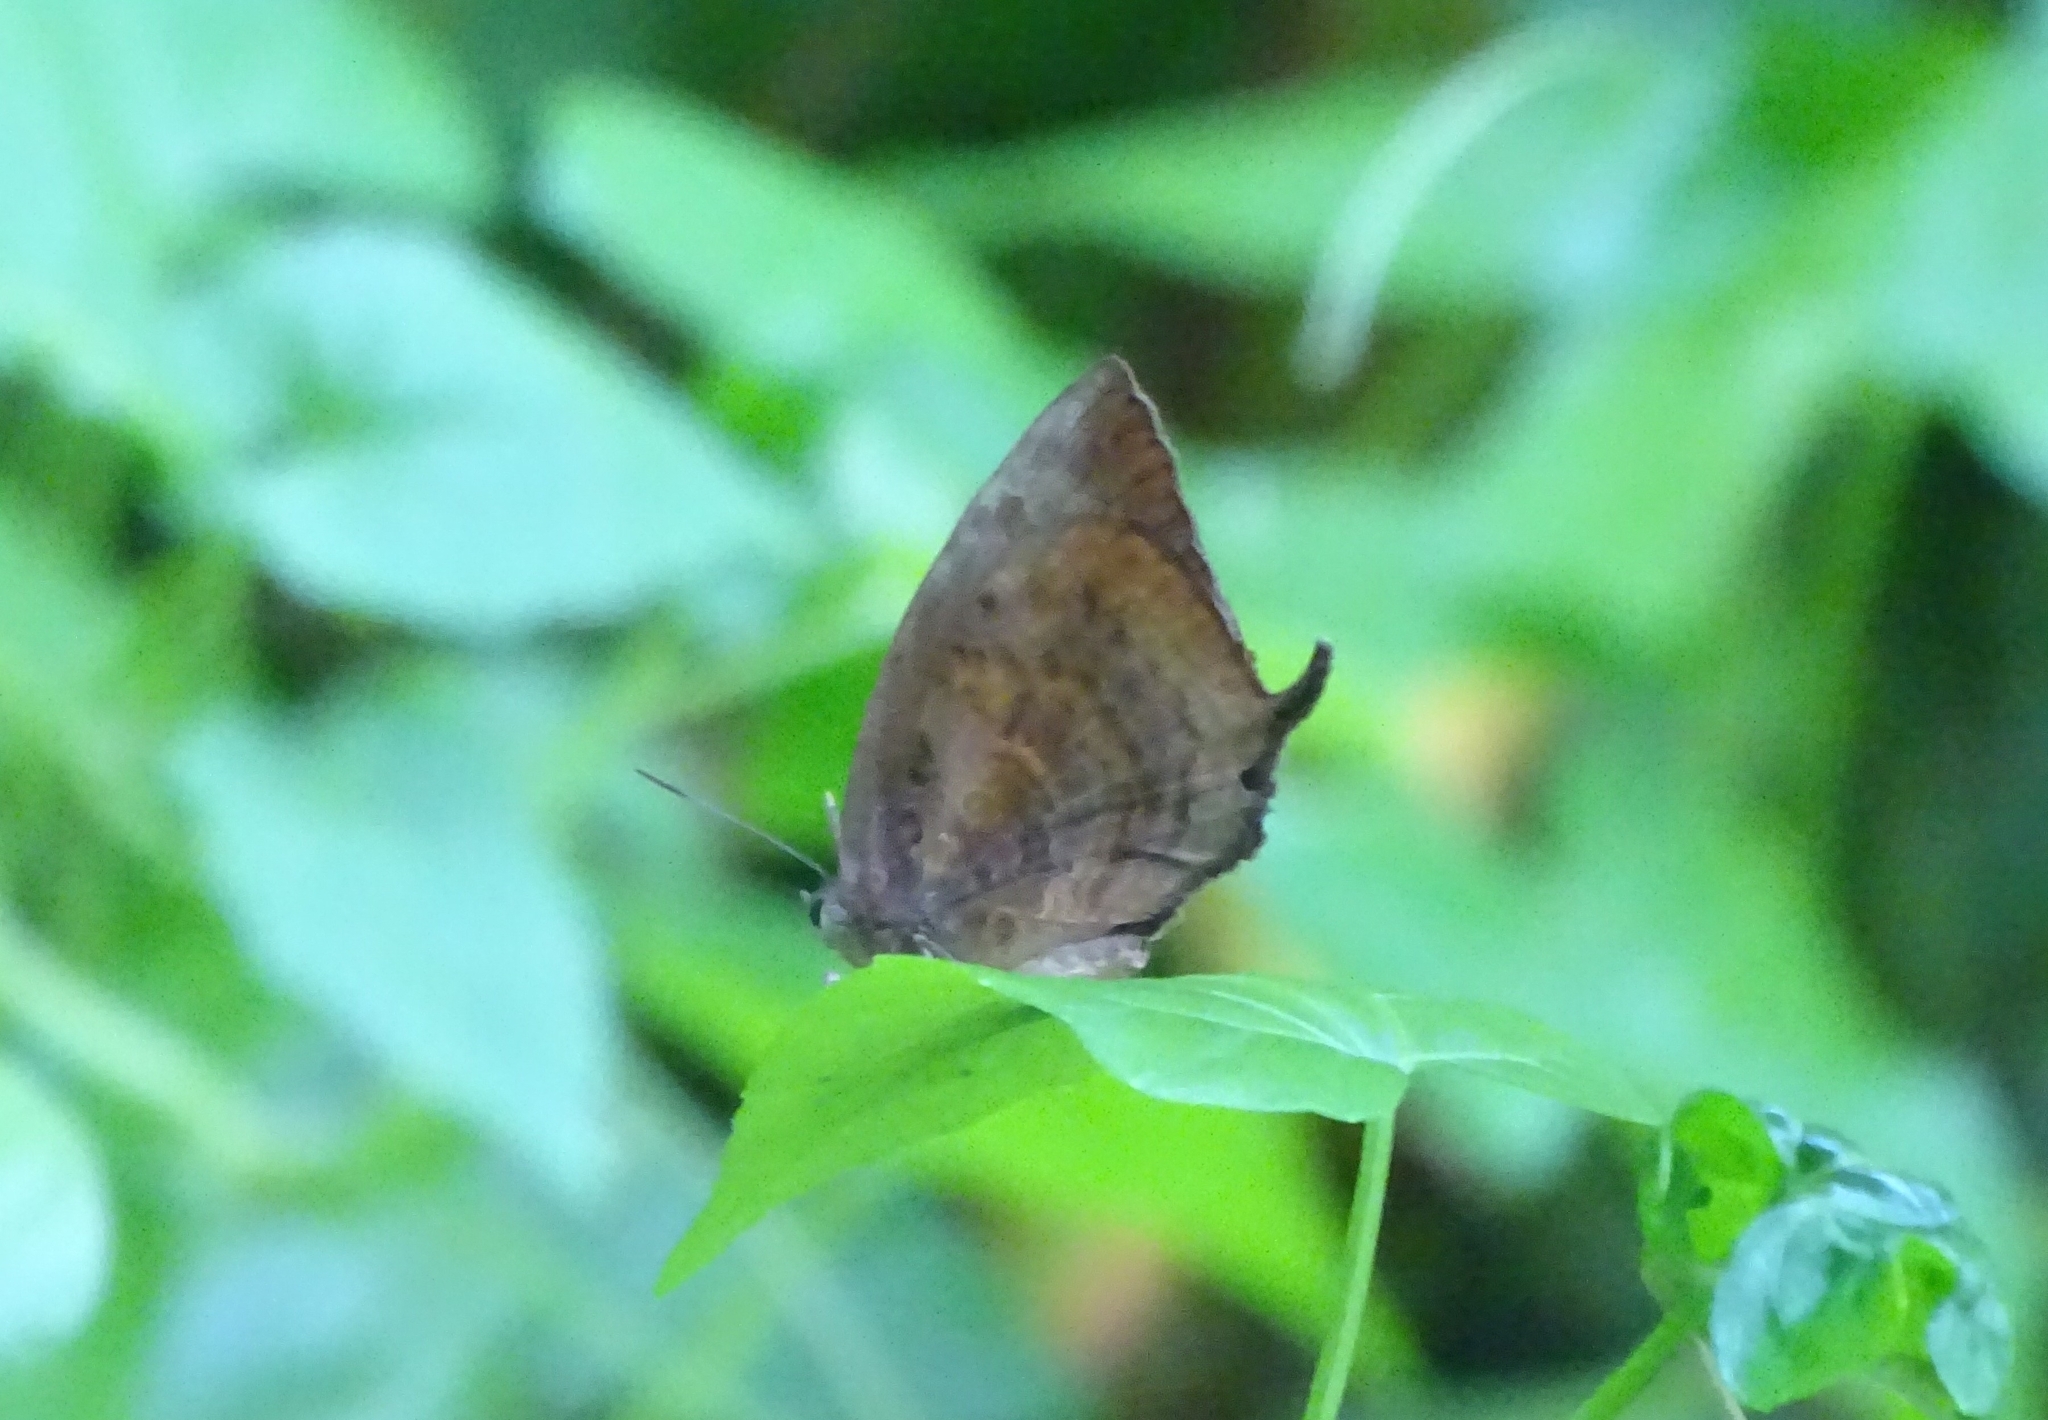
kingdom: Animalia
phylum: Arthropoda
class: Insecta
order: Lepidoptera
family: Lycaenidae
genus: Arhopala
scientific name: Arhopala centaurus
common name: Dull oak-blue
